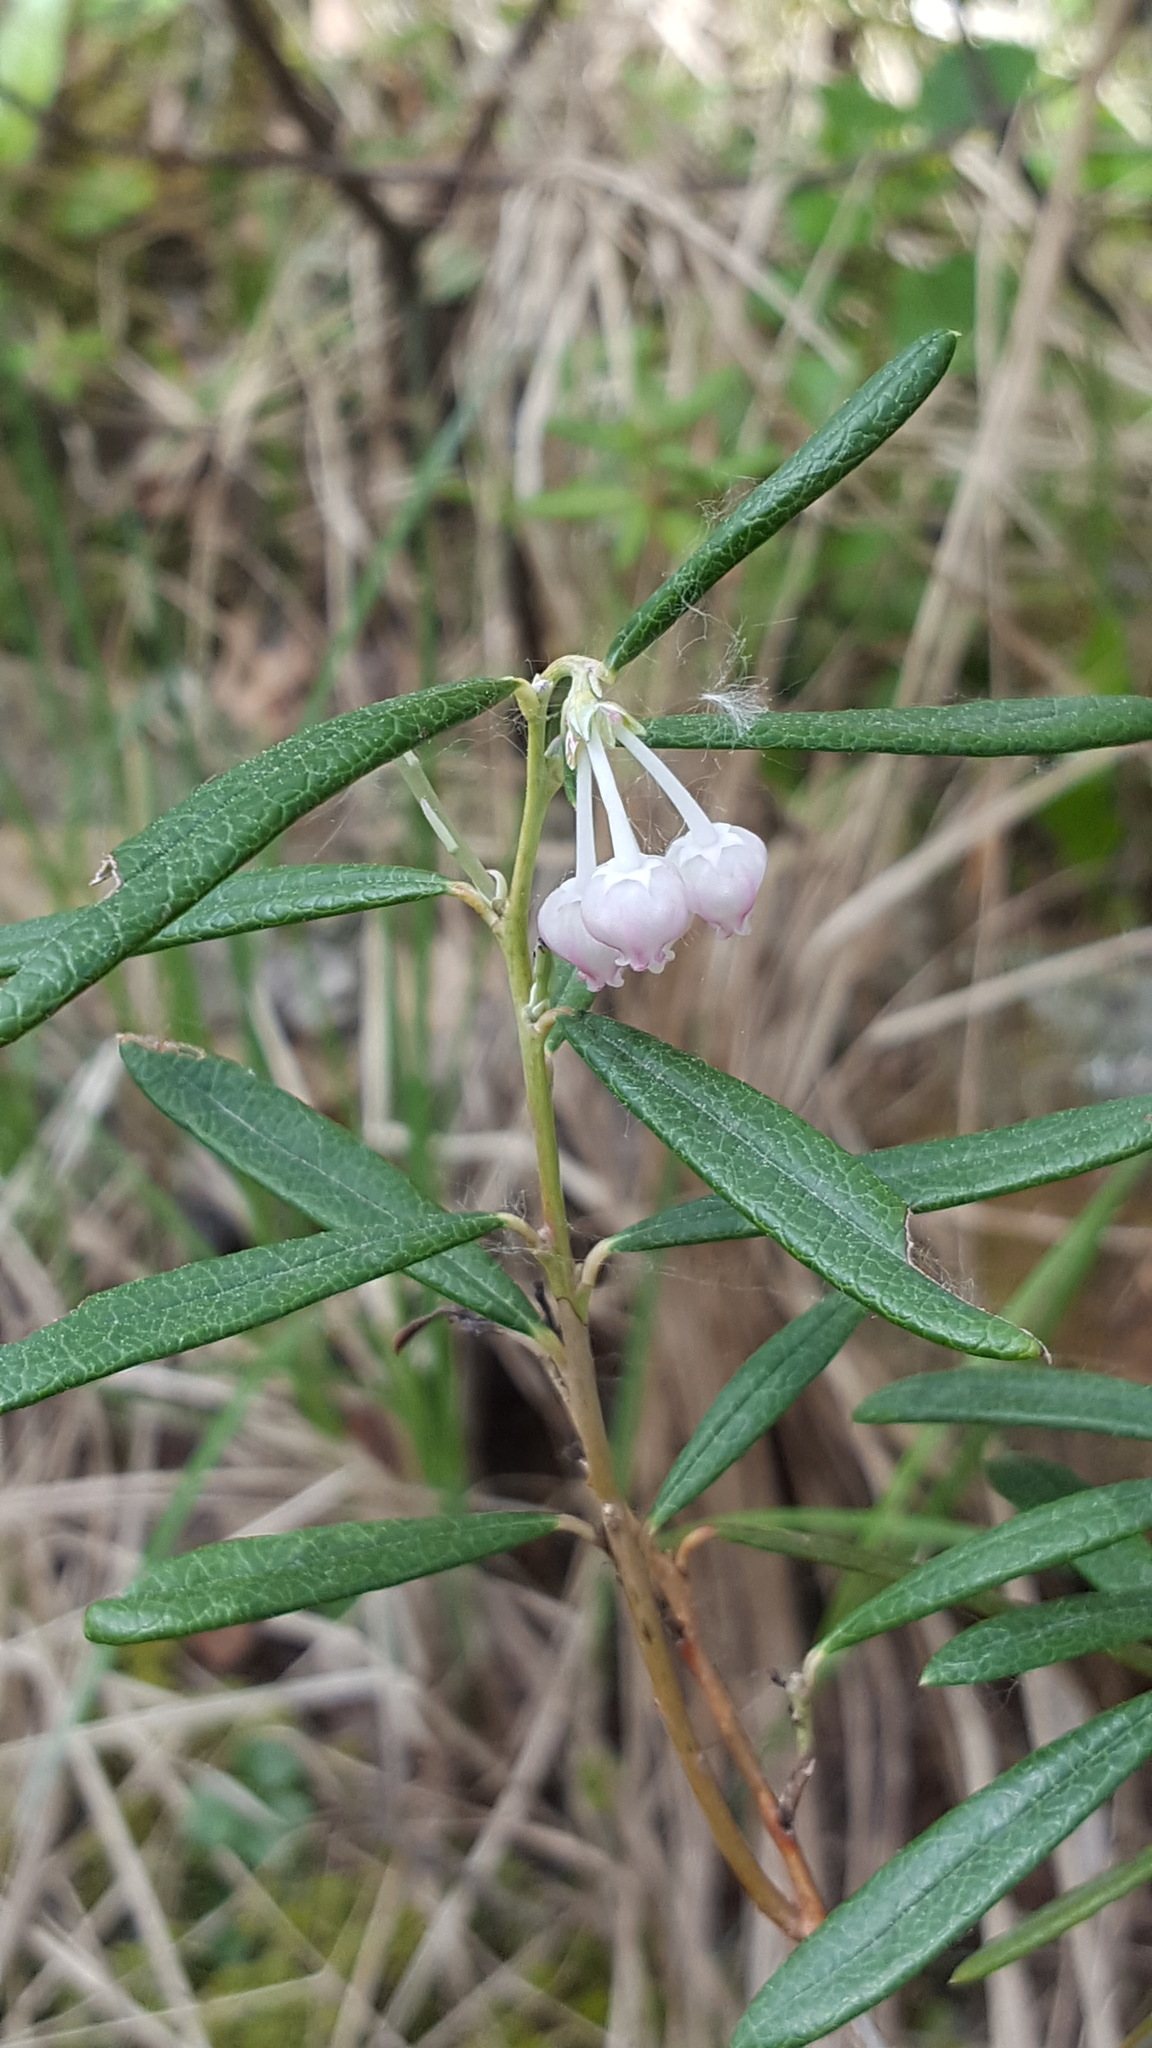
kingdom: Plantae
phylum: Tracheophyta
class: Magnoliopsida
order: Ericales
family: Ericaceae
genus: Andromeda
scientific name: Andromeda polifolia
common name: Bog-rosemary
